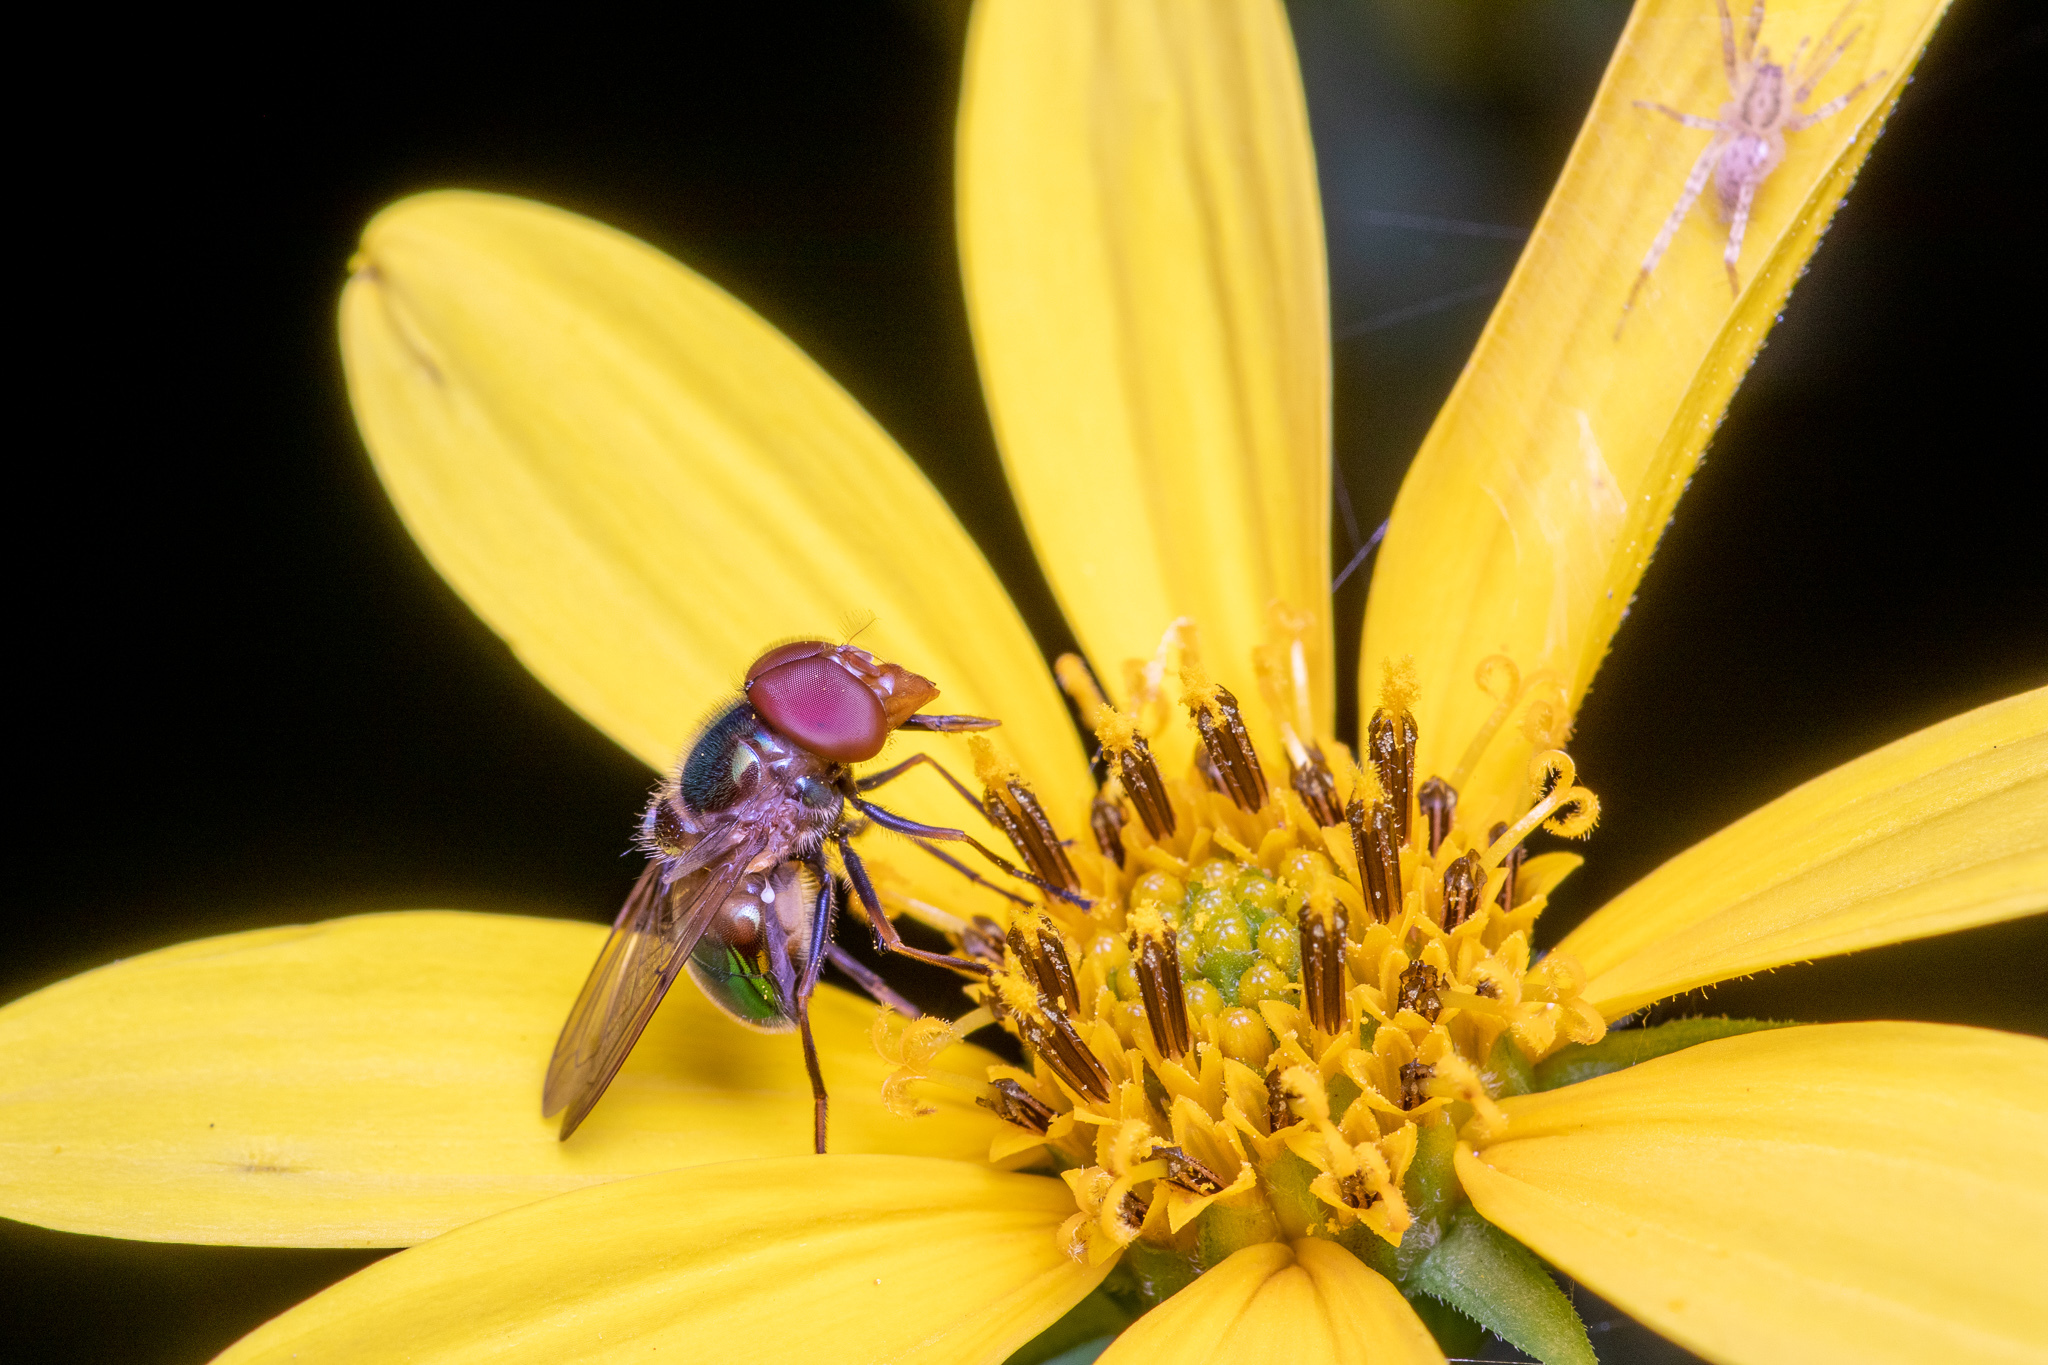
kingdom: Animalia
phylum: Arthropoda
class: Insecta
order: Diptera
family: Syrphidae
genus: Copestylum
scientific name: Copestylum vesicularium
